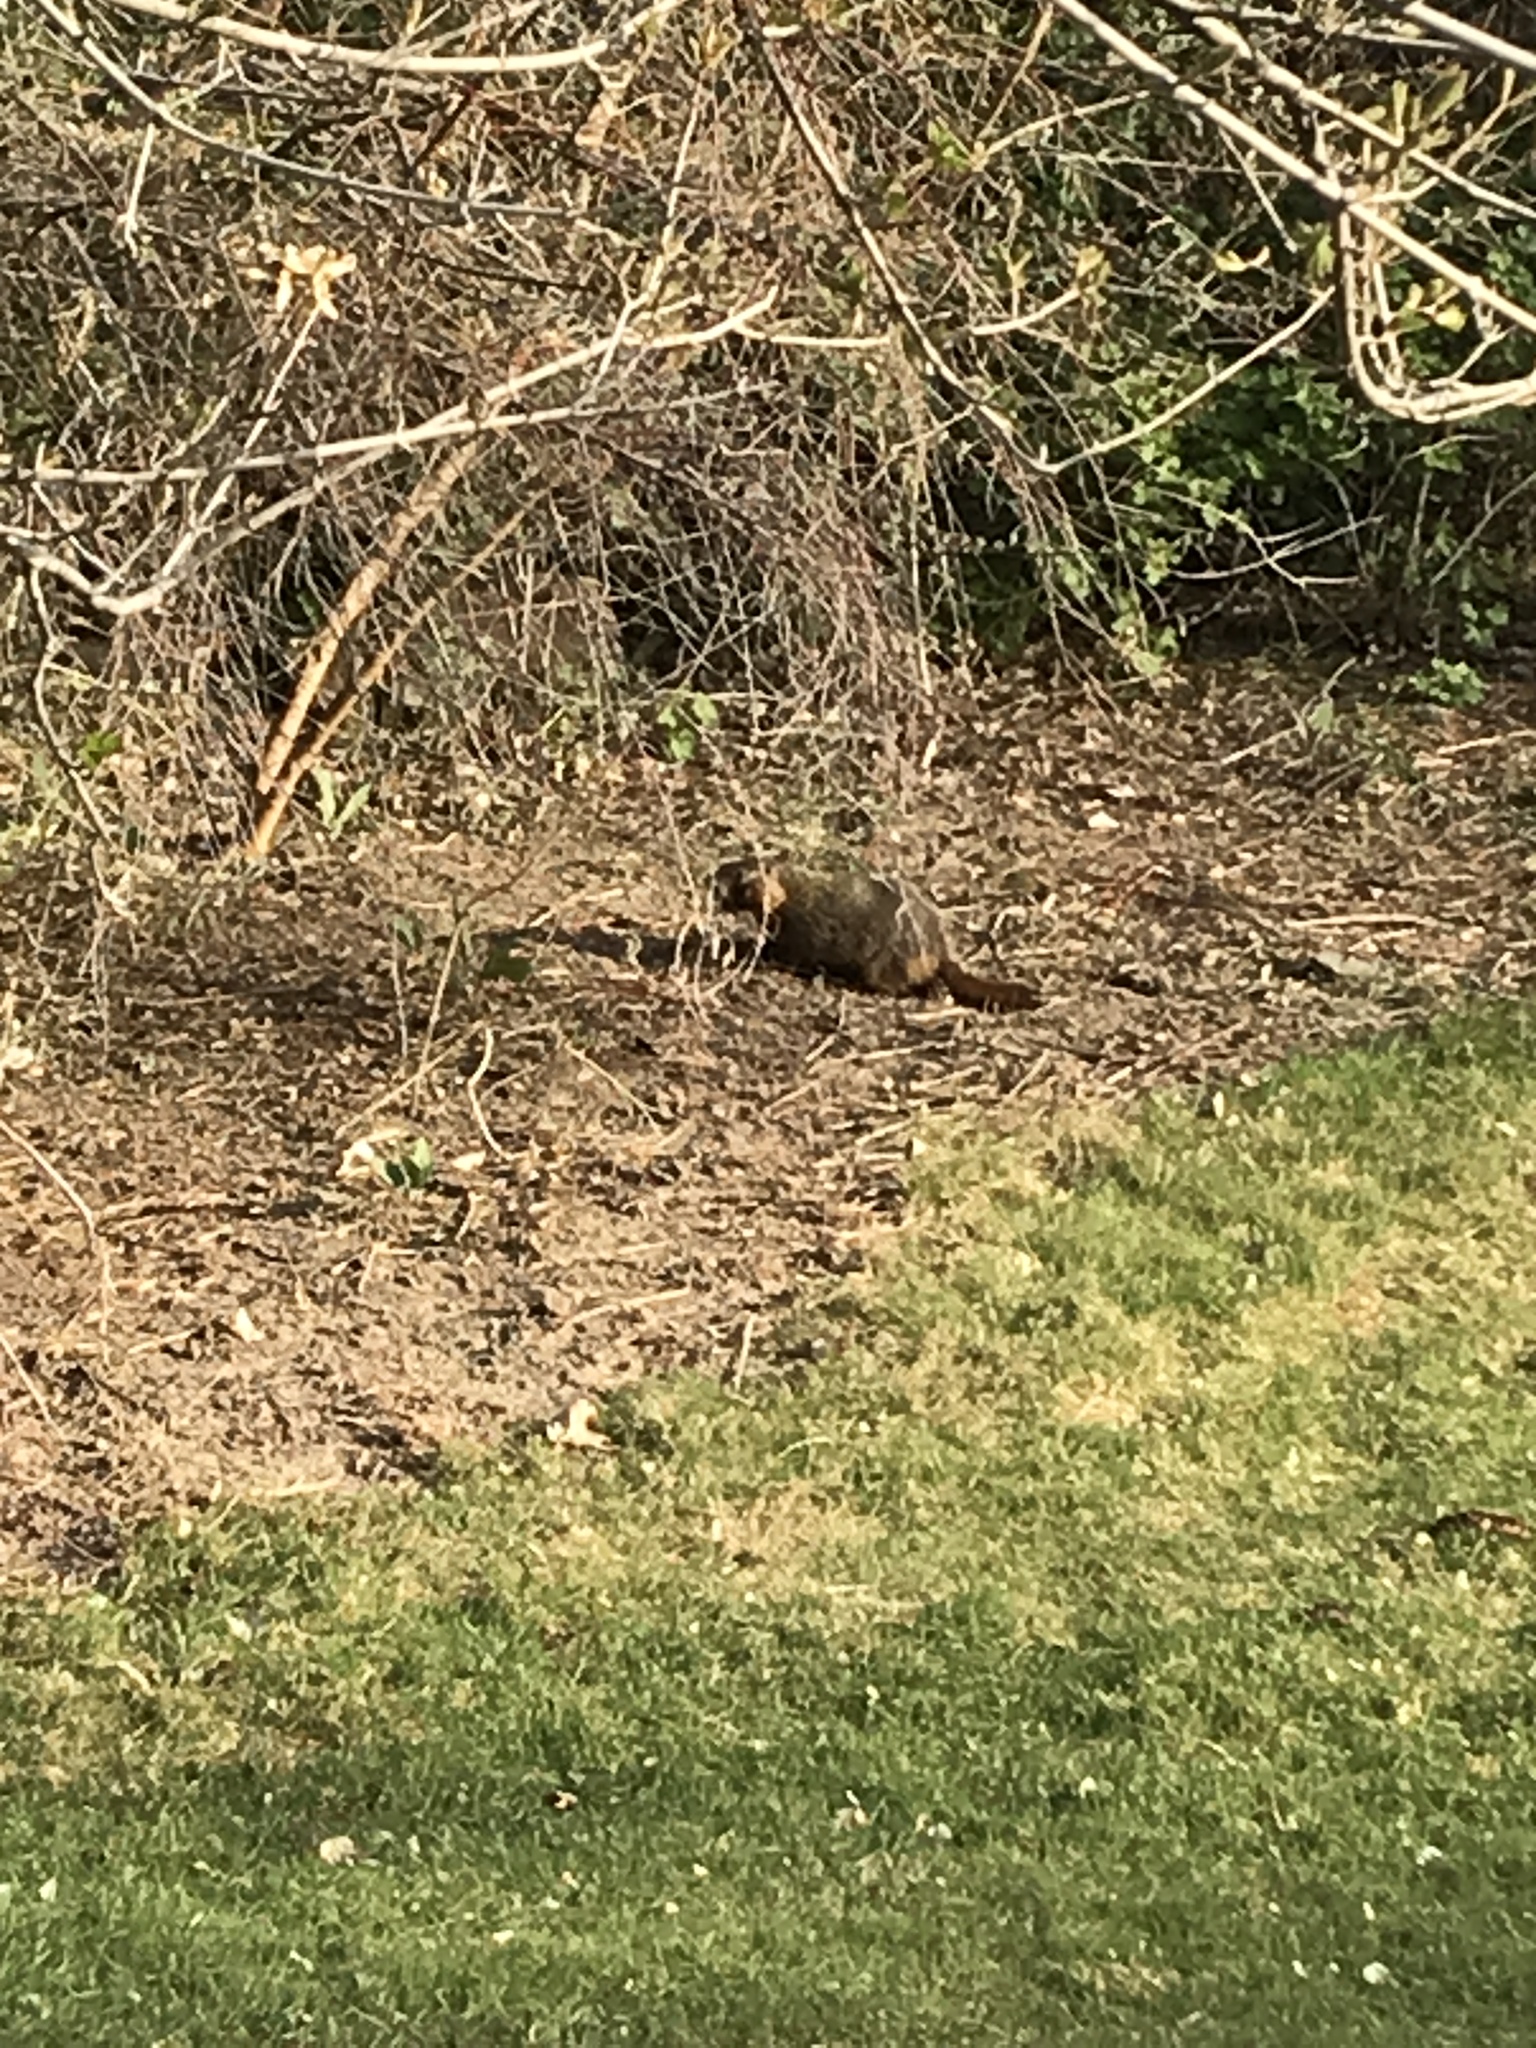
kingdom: Animalia
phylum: Chordata
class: Mammalia
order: Rodentia
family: Sciuridae
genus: Marmota
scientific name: Marmota flaviventris
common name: Yellow-bellied marmot
